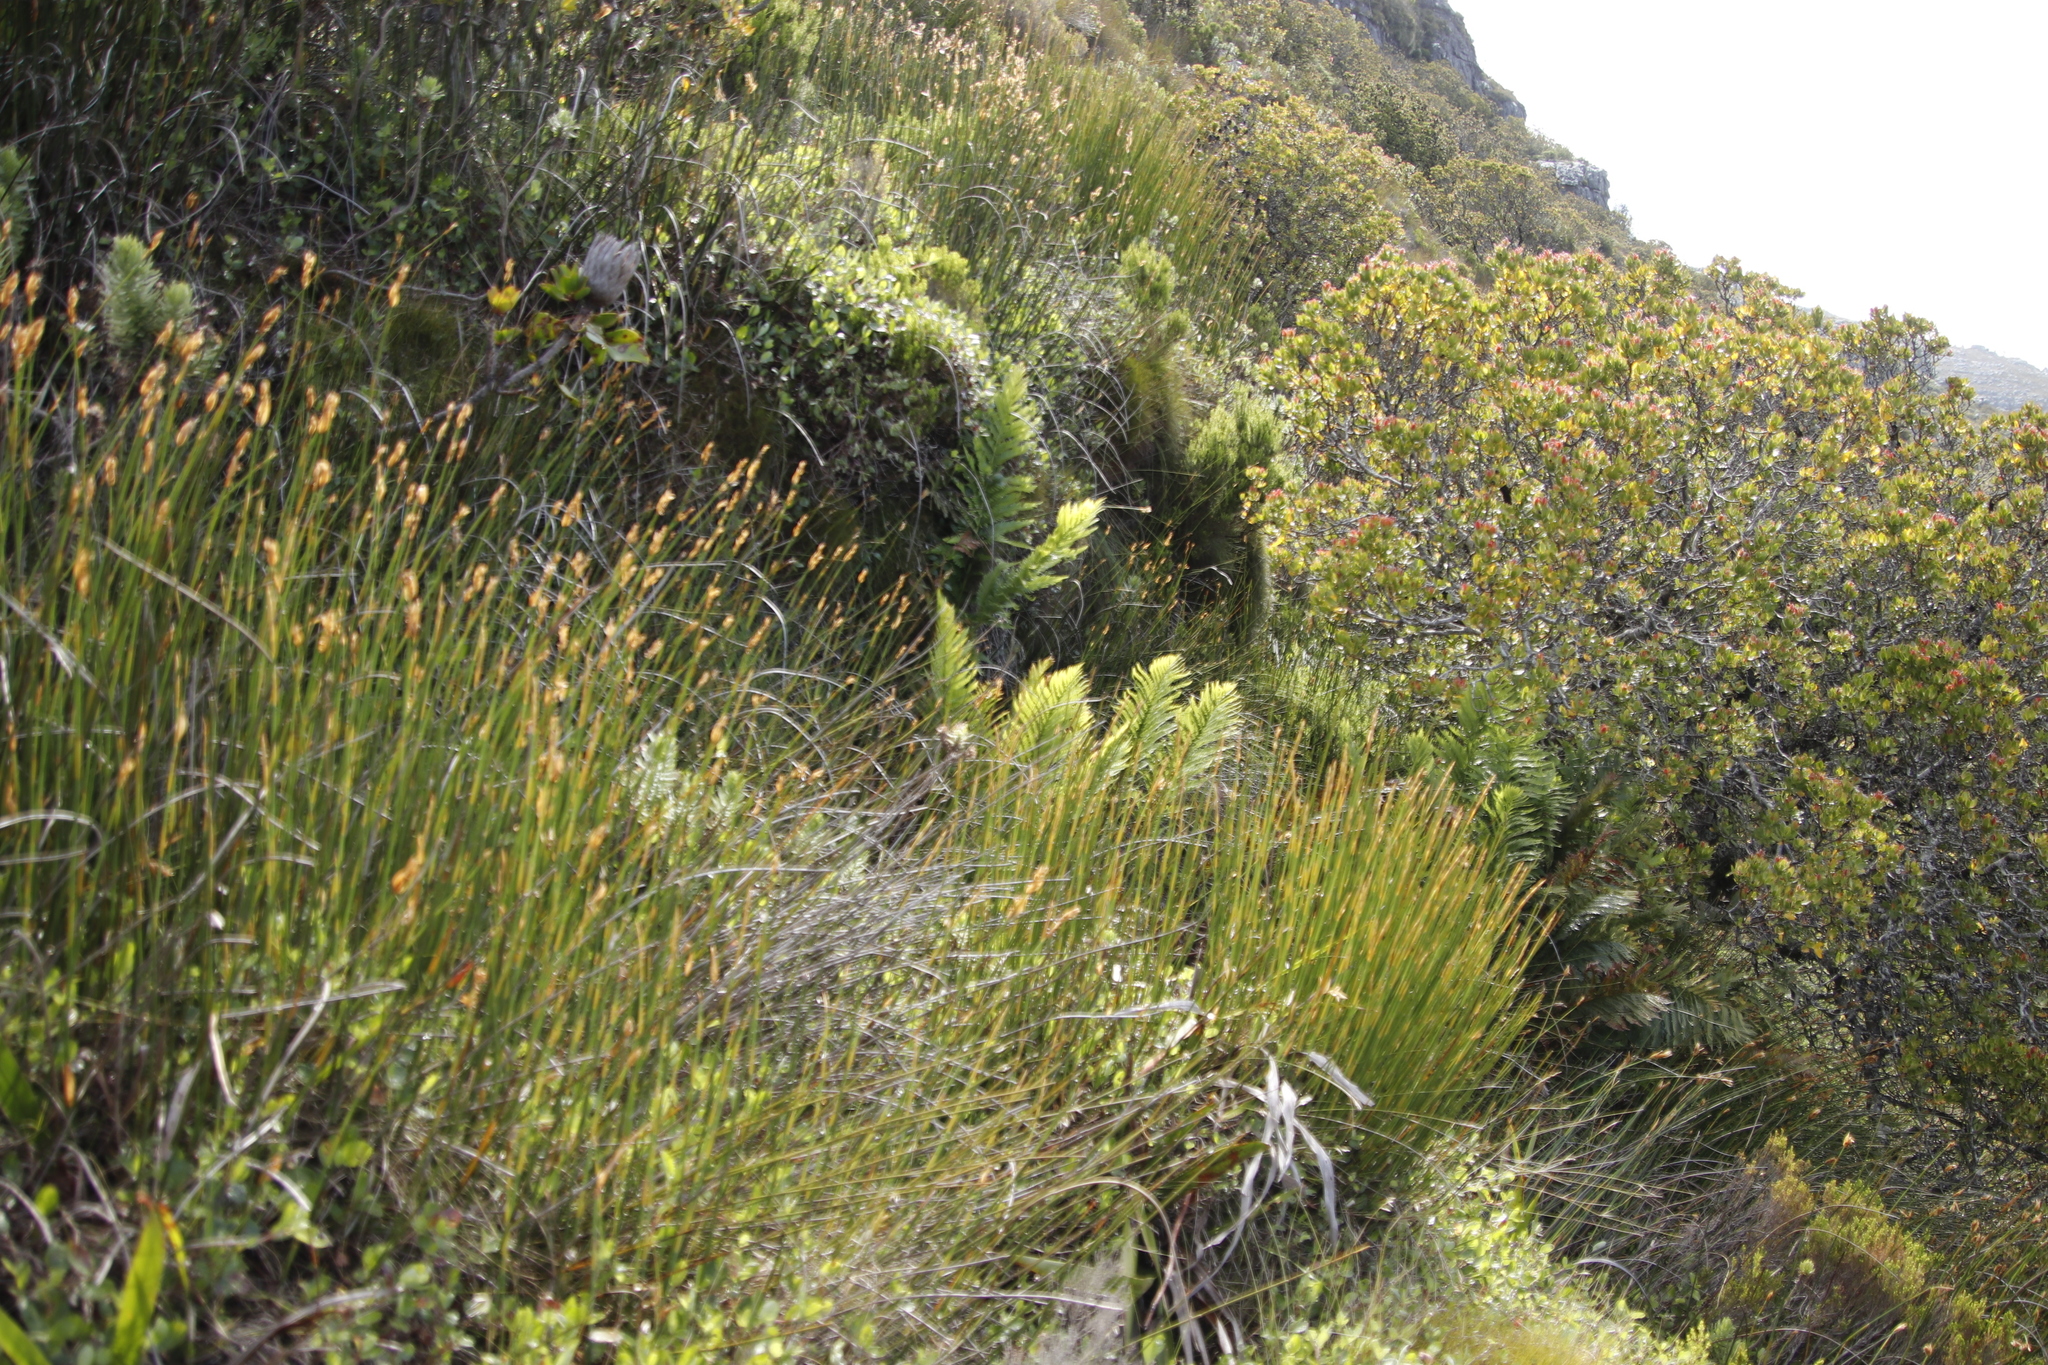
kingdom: Plantae
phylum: Tracheophyta
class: Polypodiopsida
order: Osmundales
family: Osmundaceae
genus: Todea
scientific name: Todea barbara
